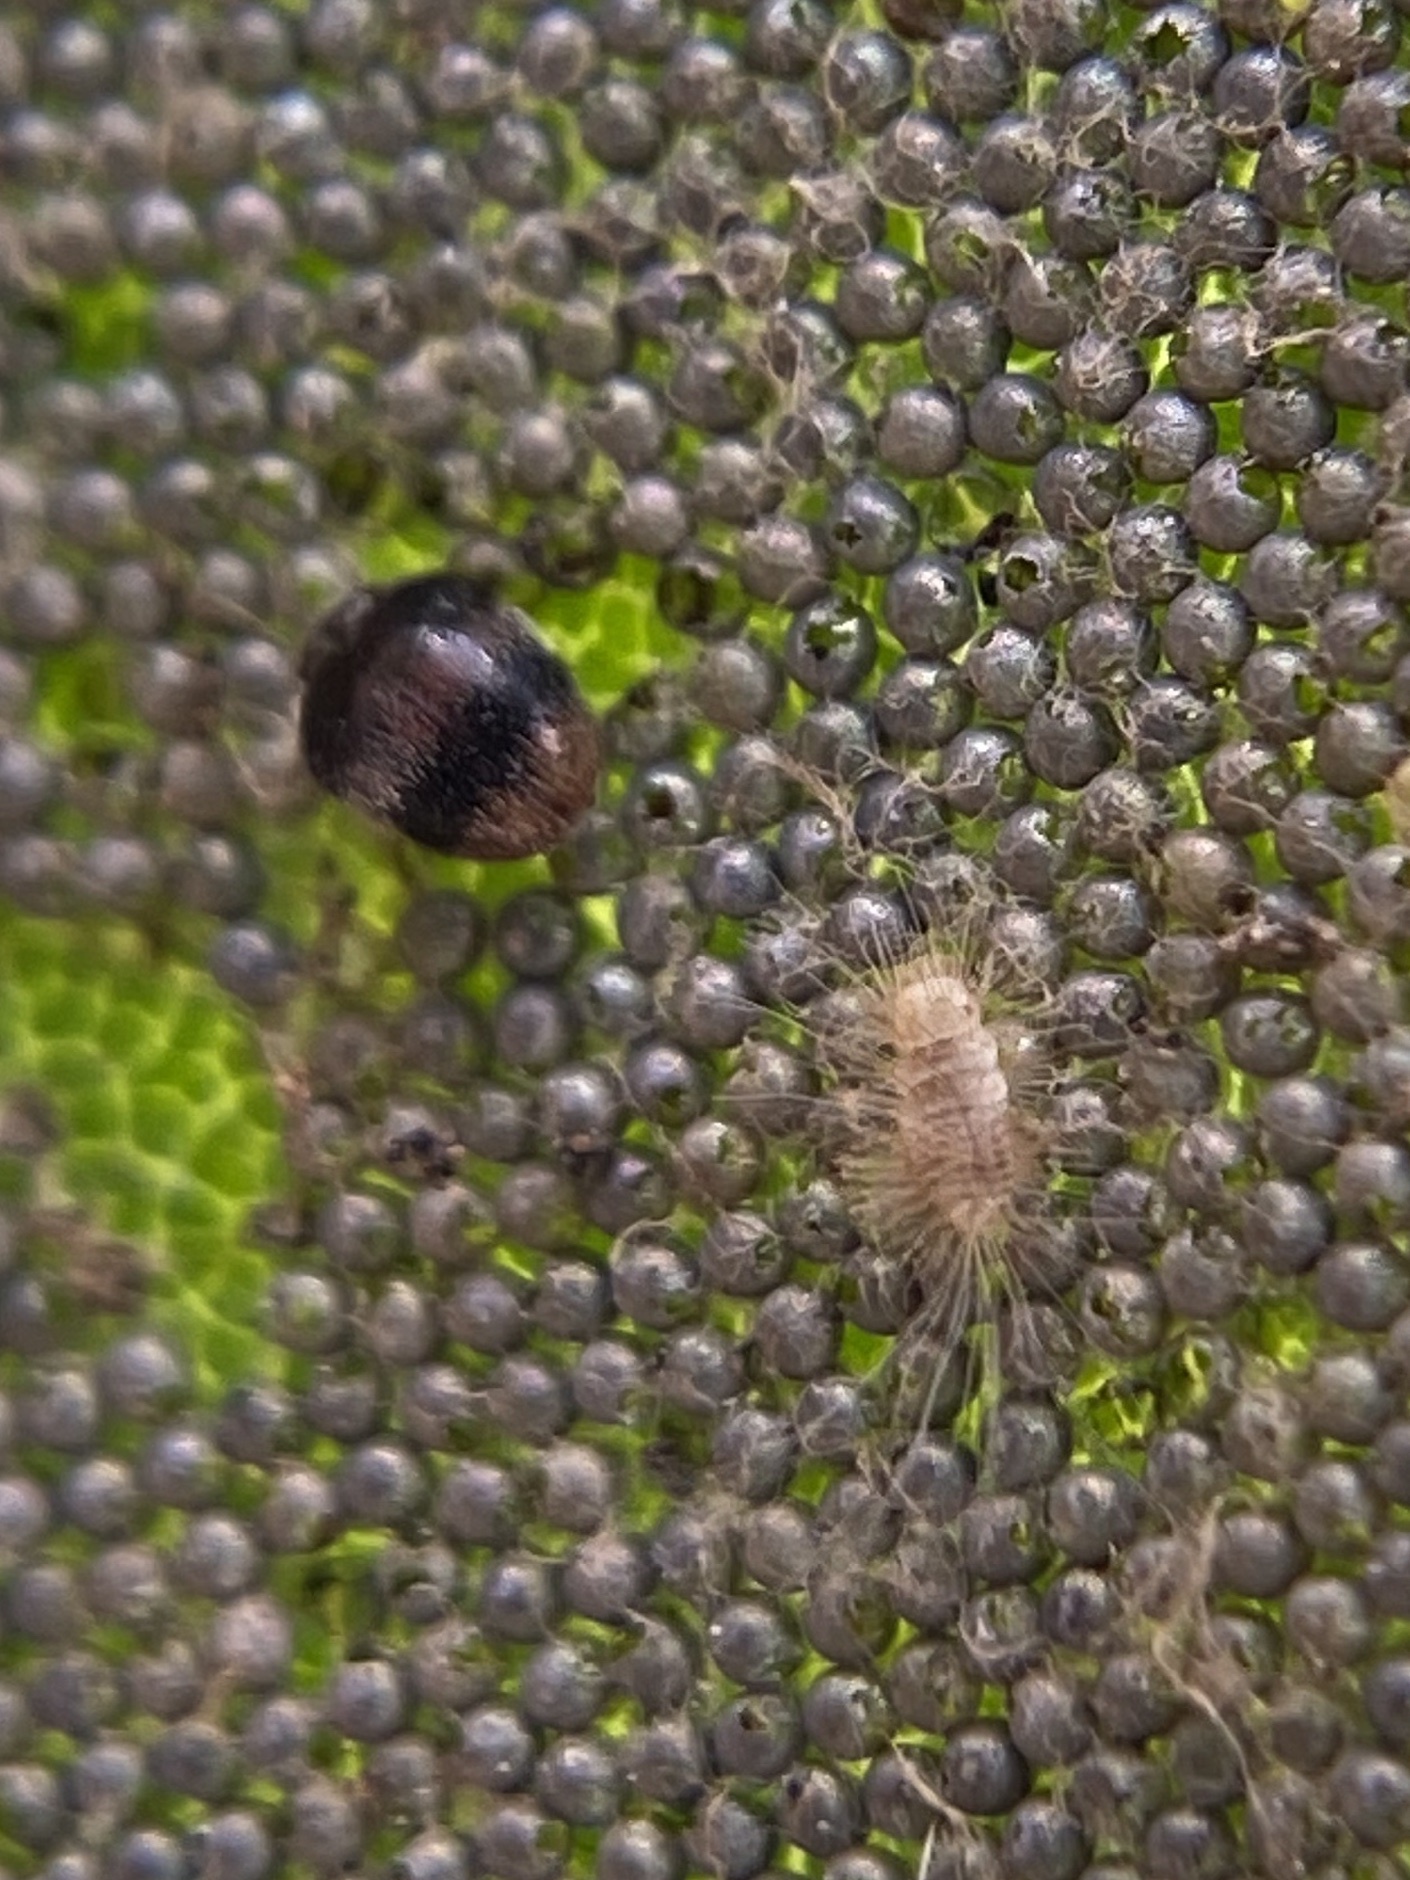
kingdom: Animalia
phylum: Arthropoda
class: Insecta
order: Coleoptera
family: Dermestidae
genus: Caccoleptus
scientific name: Caccoleptus
